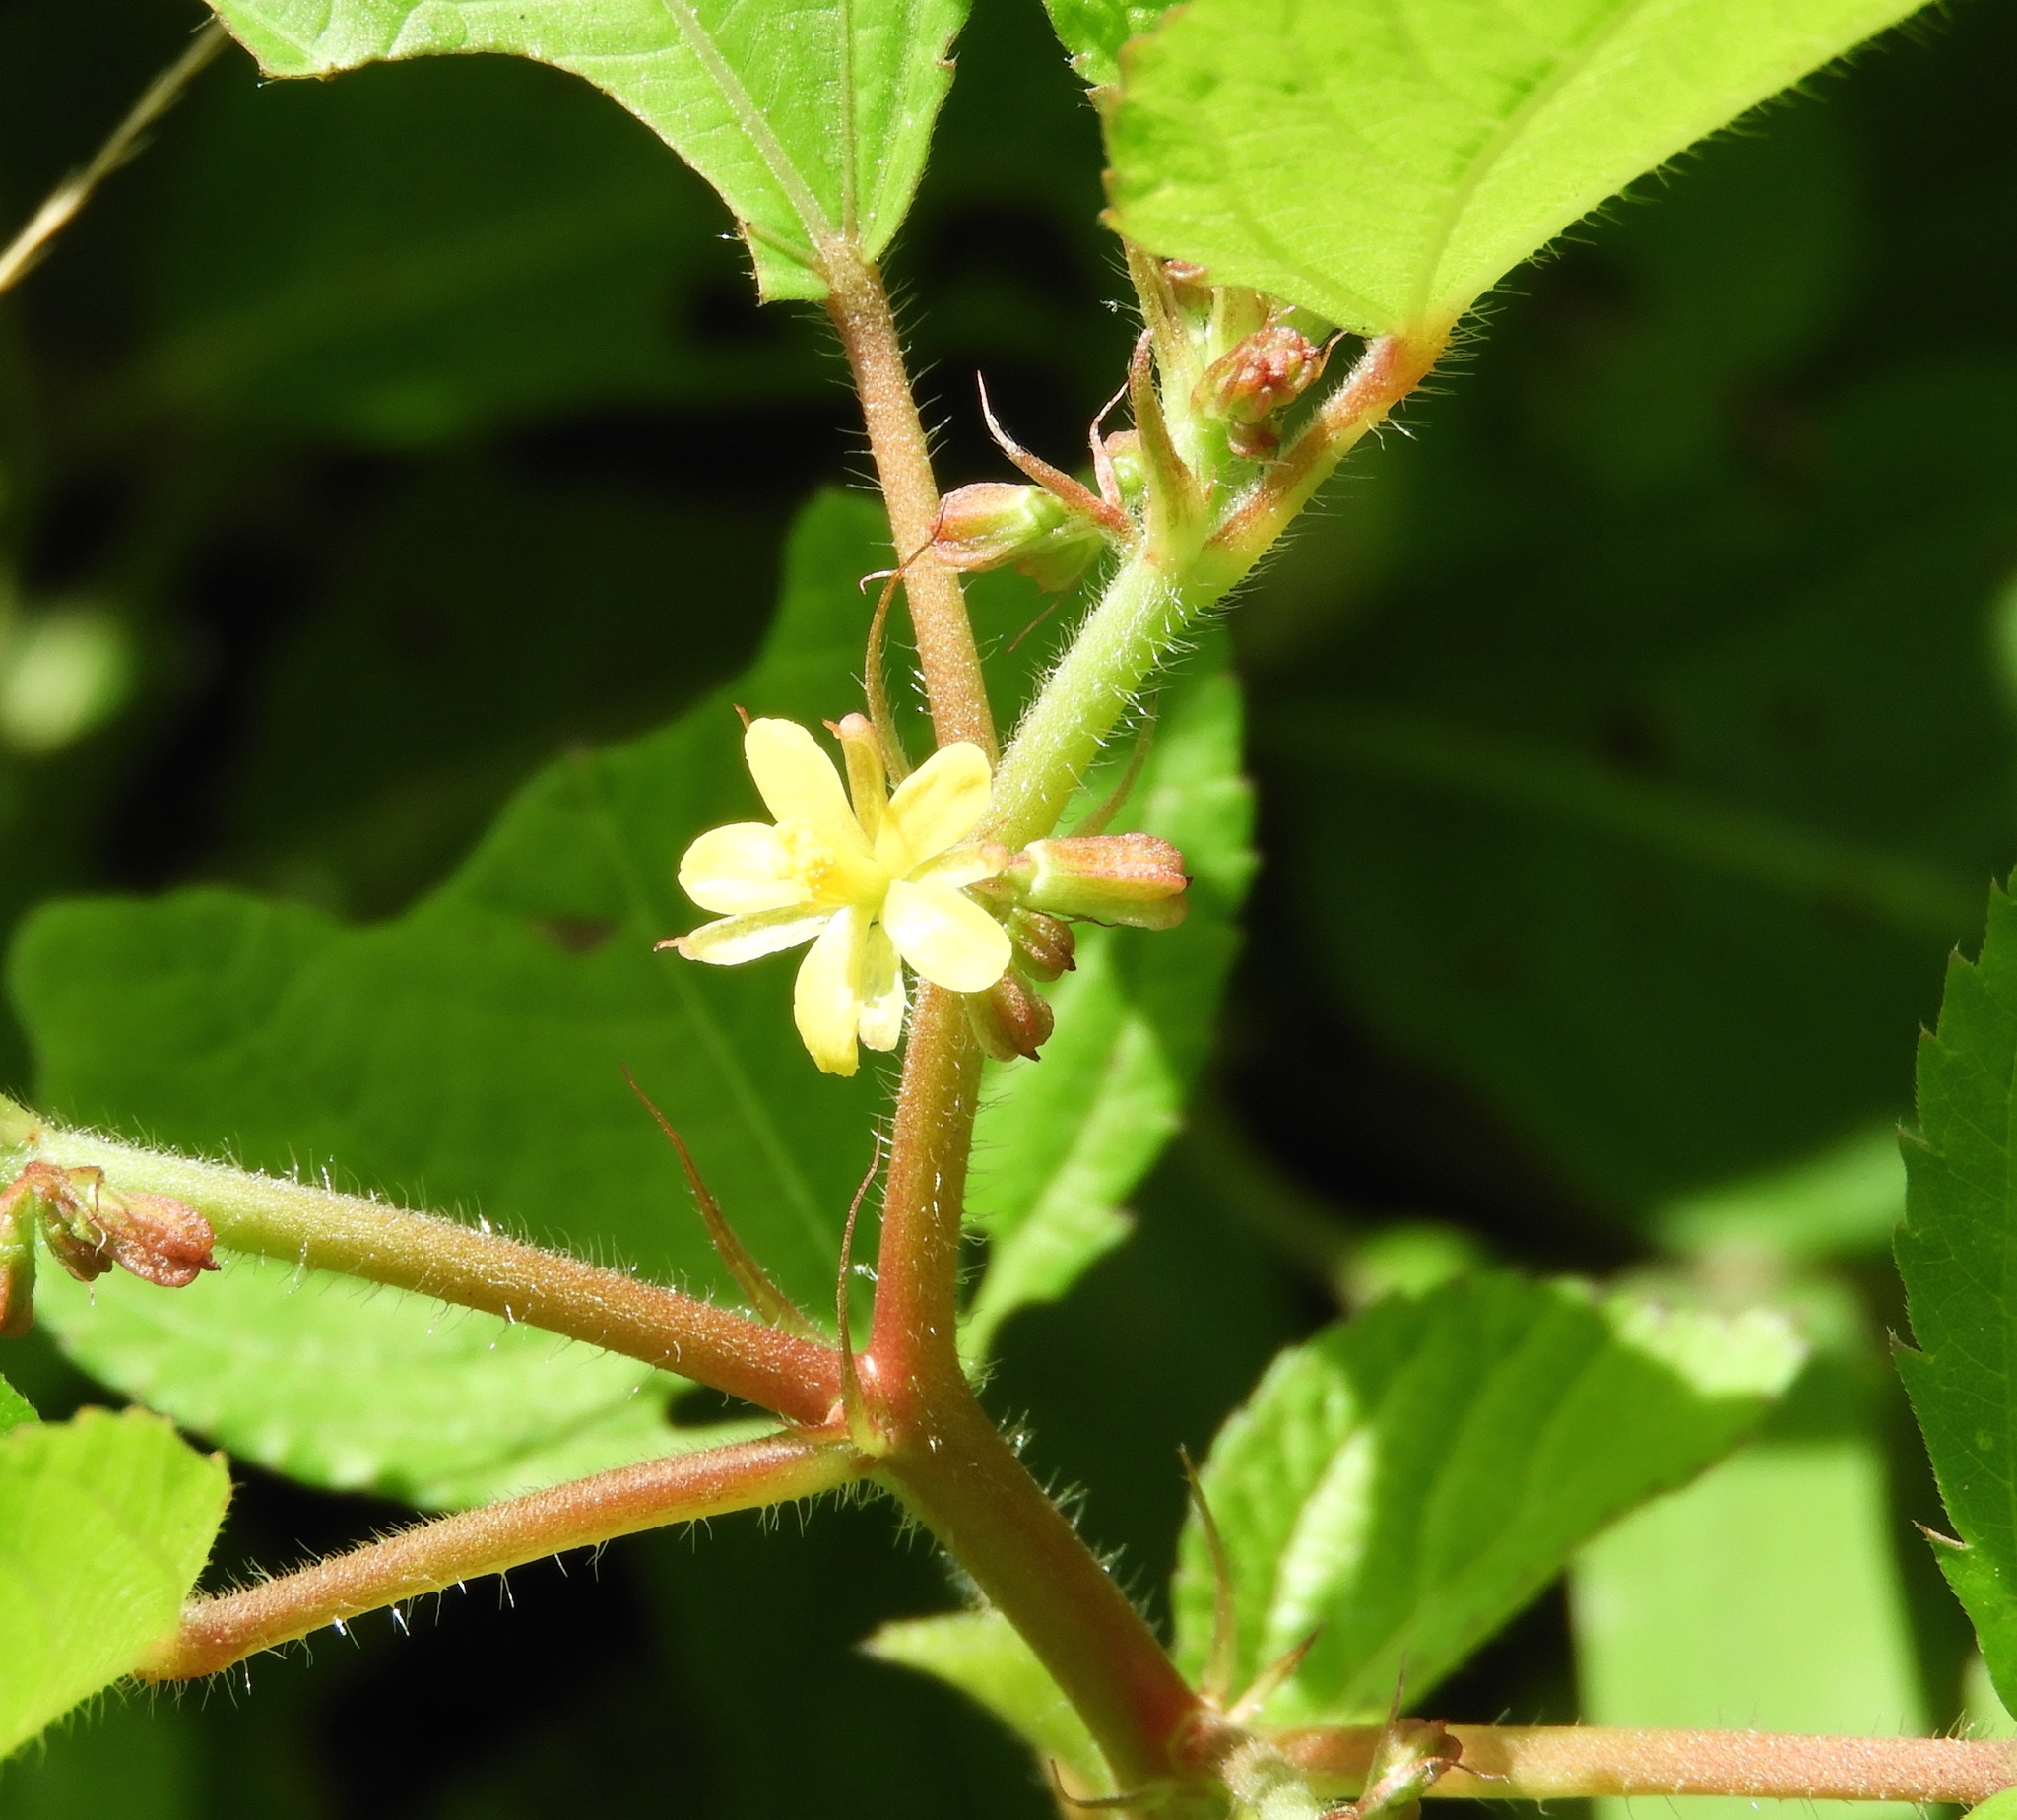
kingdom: Plantae
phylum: Tracheophyta
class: Magnoliopsida
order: Malvales
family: Malvaceae
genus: Corchorus
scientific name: Corchorus aestuans
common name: Jute
